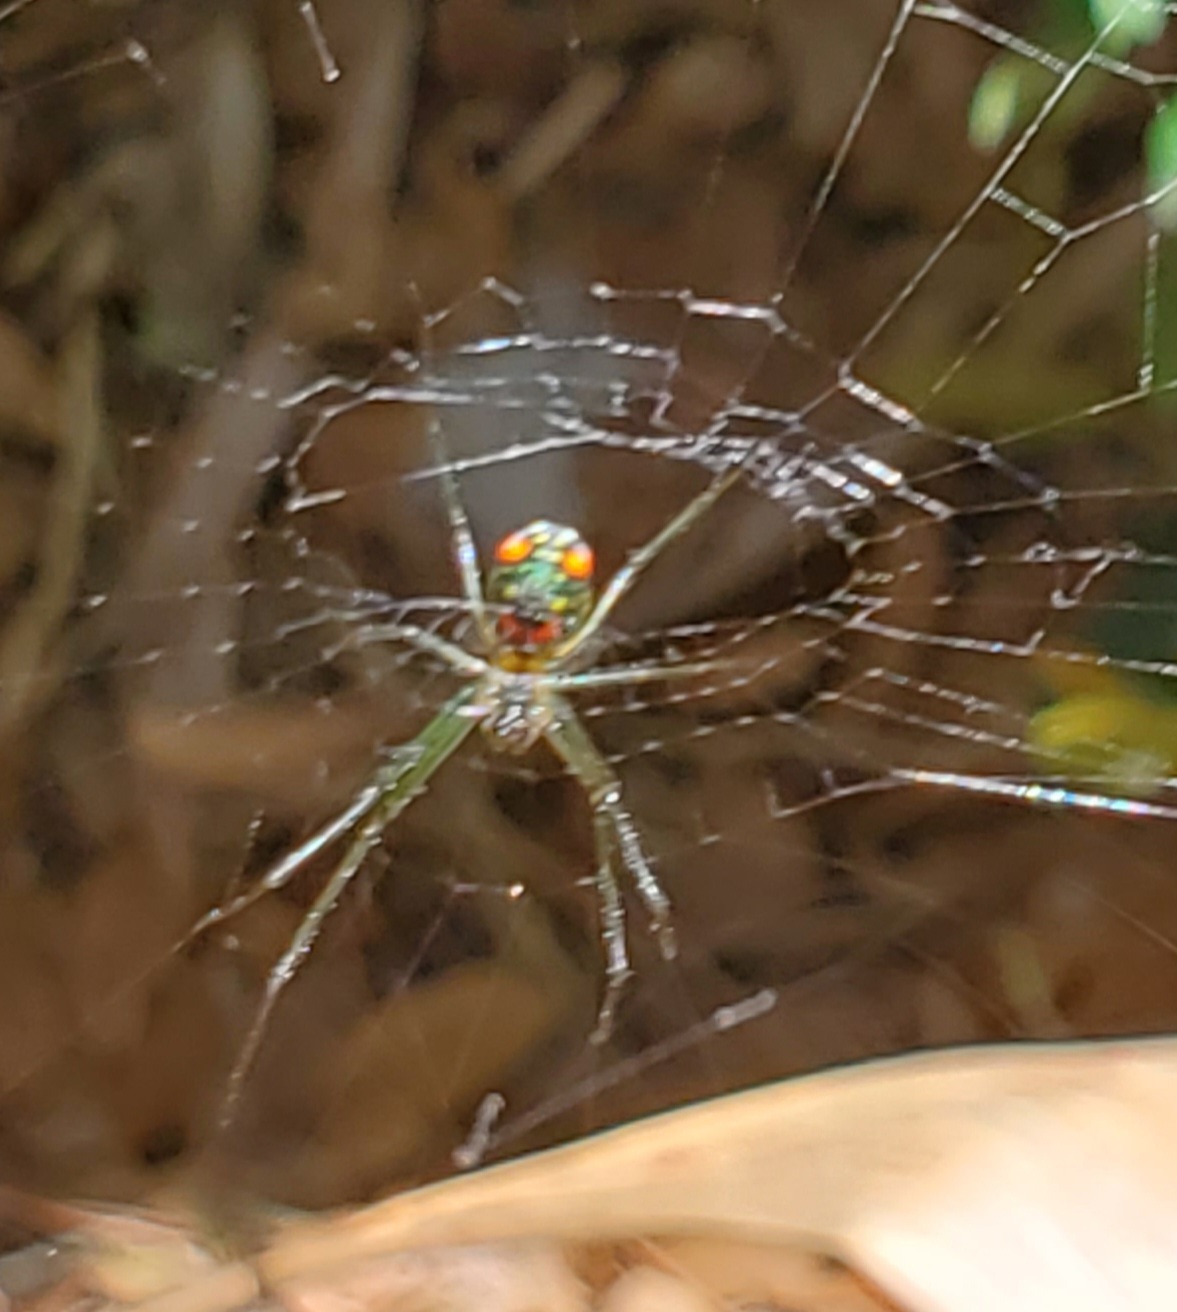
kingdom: Animalia
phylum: Arthropoda
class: Arachnida
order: Araneae
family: Tetragnathidae
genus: Leucauge
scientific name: Leucauge argyrobapta
